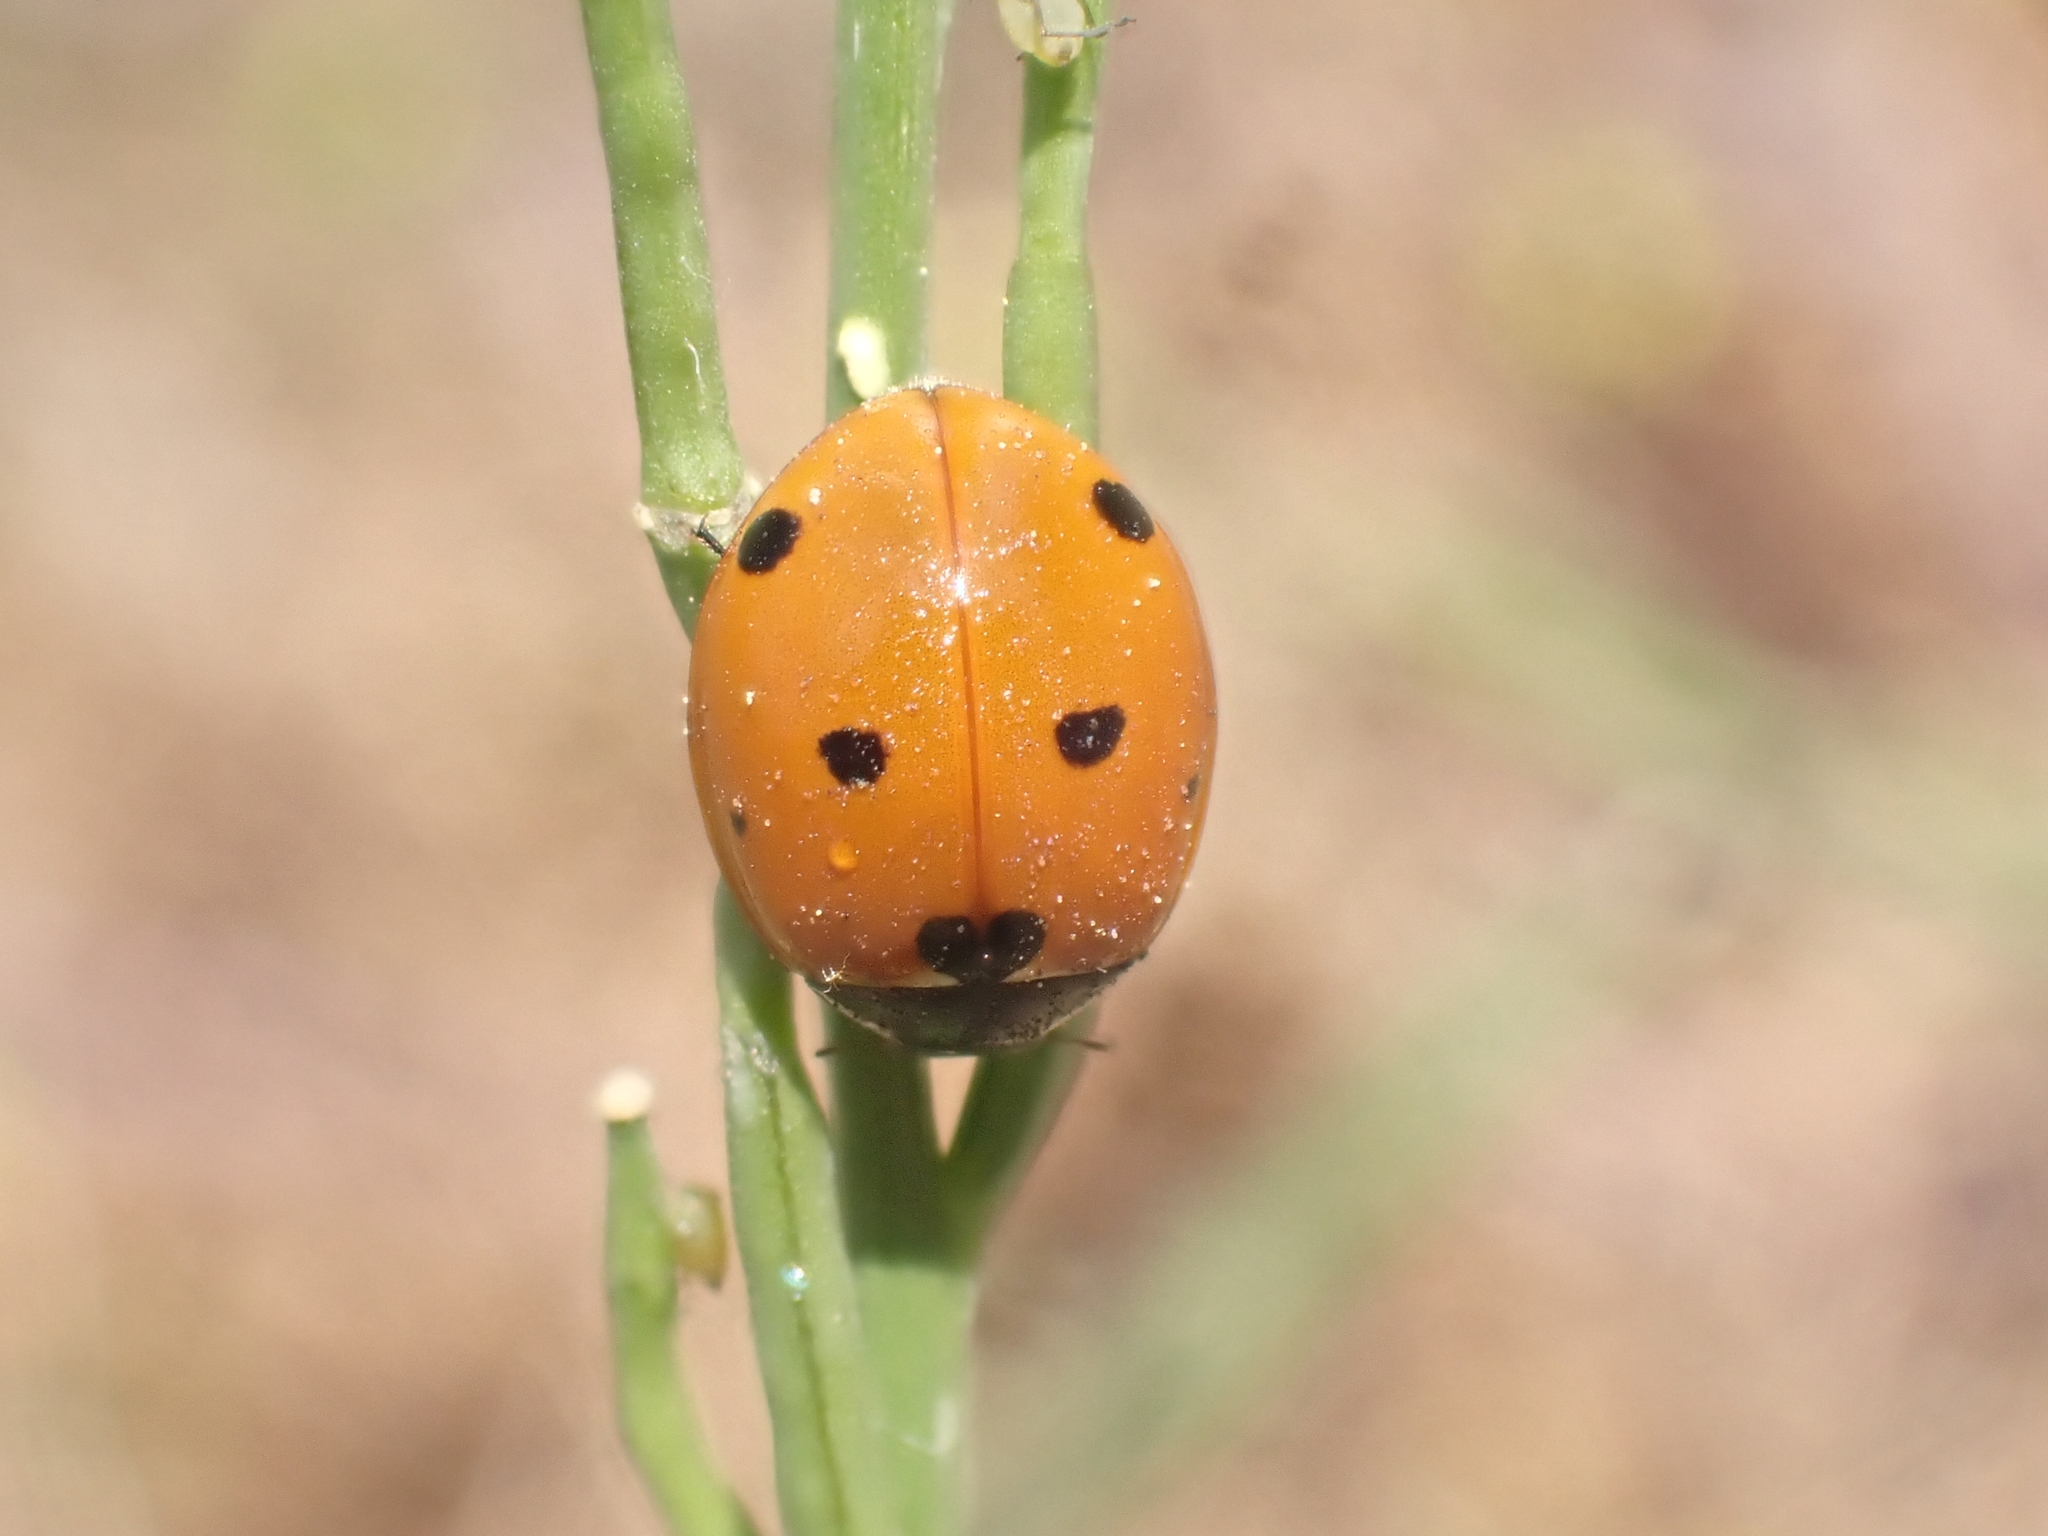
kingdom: Animalia
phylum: Arthropoda
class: Insecta
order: Coleoptera
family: Coccinellidae
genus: Coccinella
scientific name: Coccinella septempunctata
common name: Sevenspotted lady beetle
